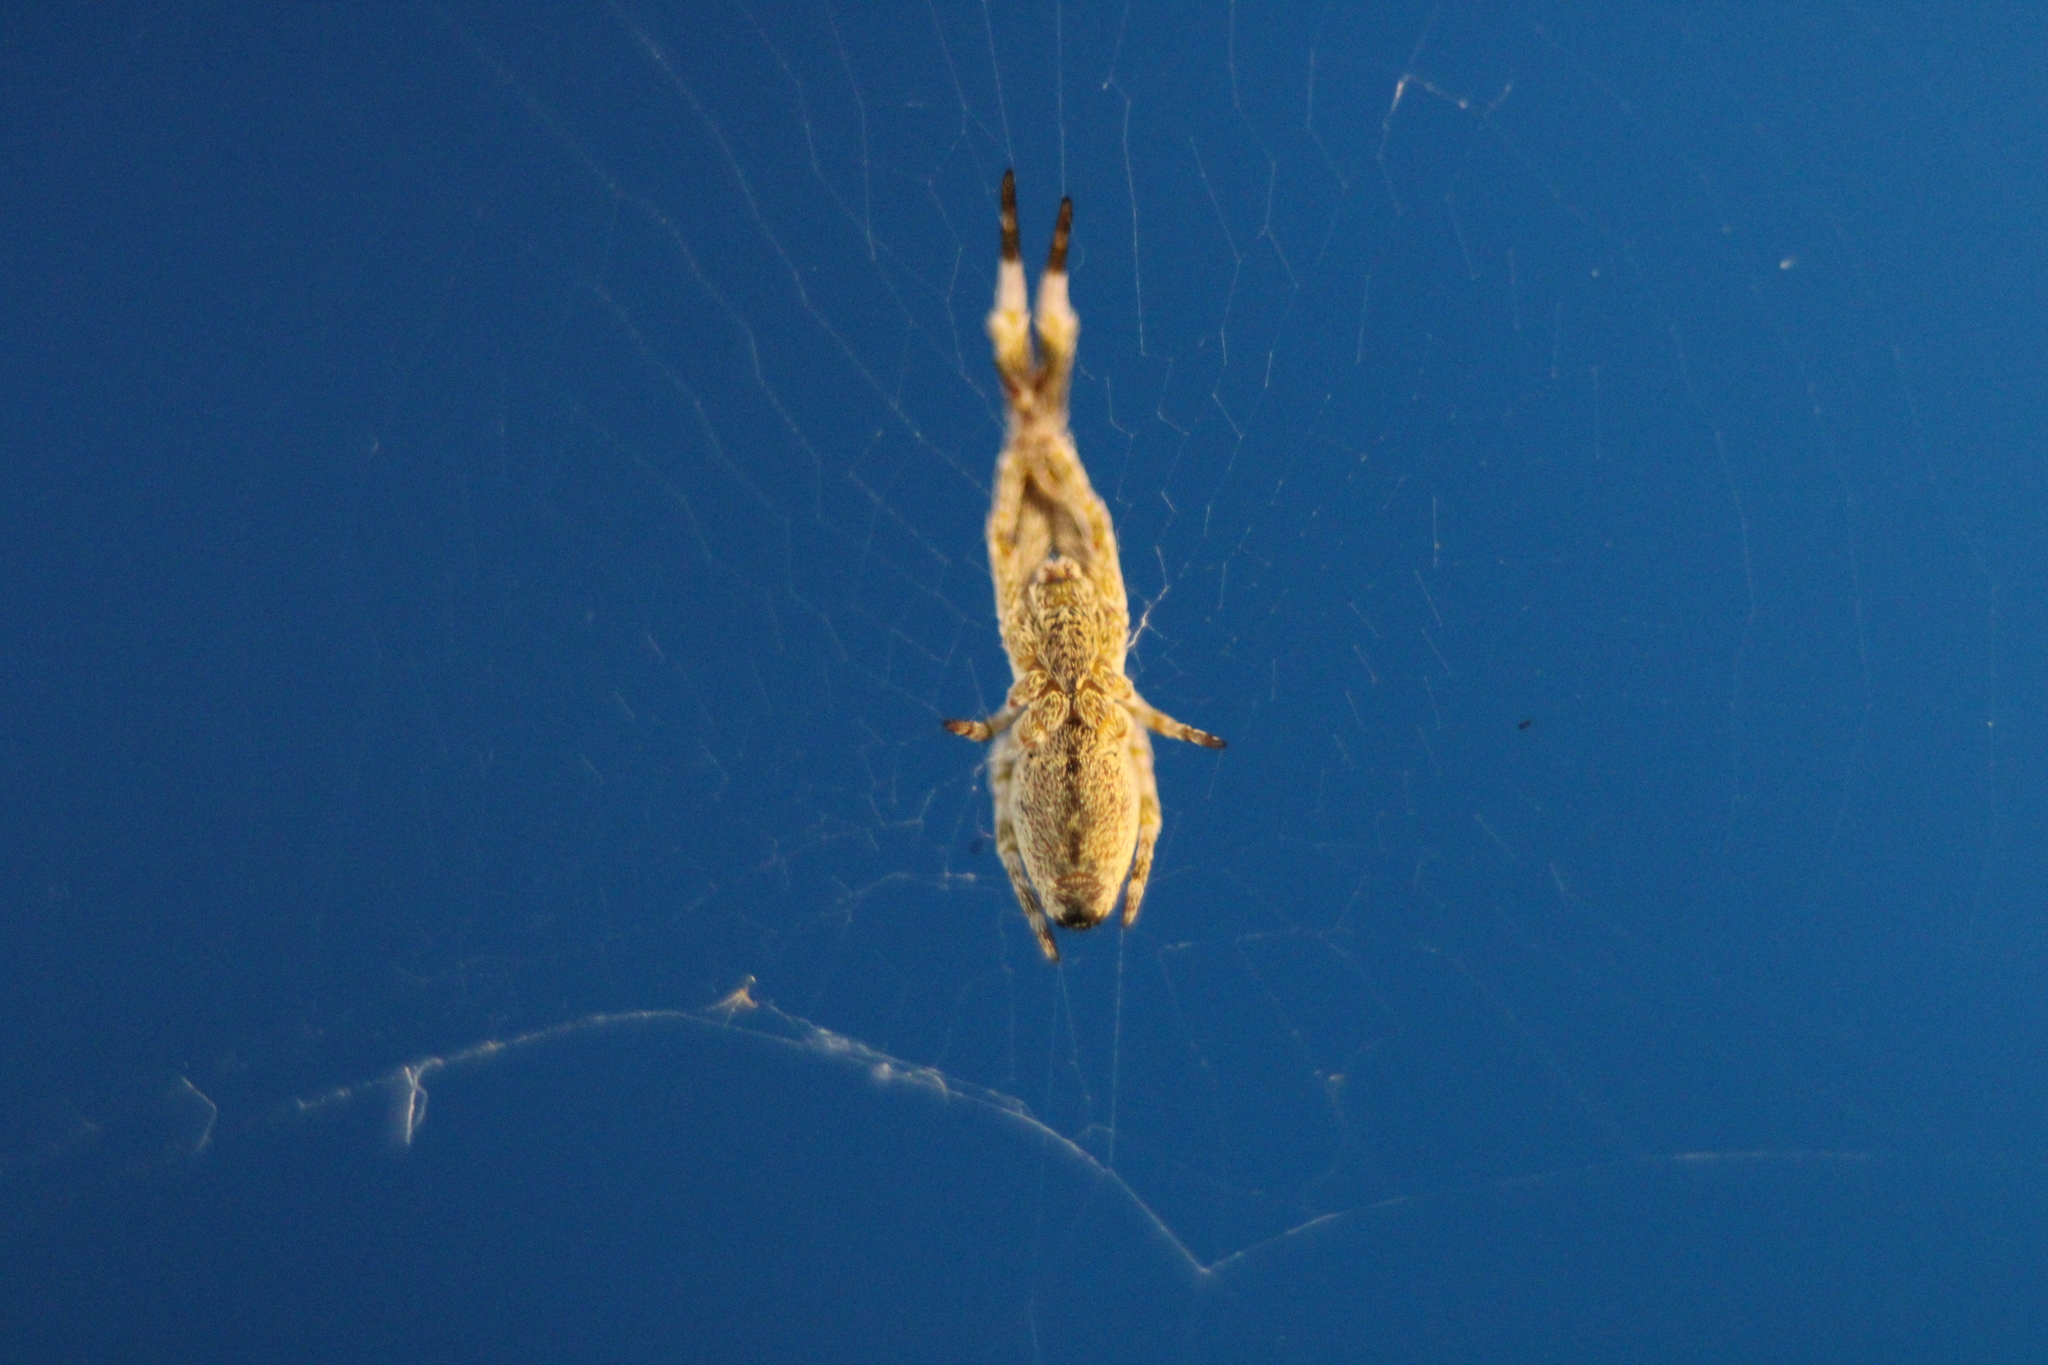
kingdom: Animalia
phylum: Arthropoda
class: Arachnida
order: Araneae
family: Uloboridae
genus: Uloborus
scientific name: Uloborus glomosus
